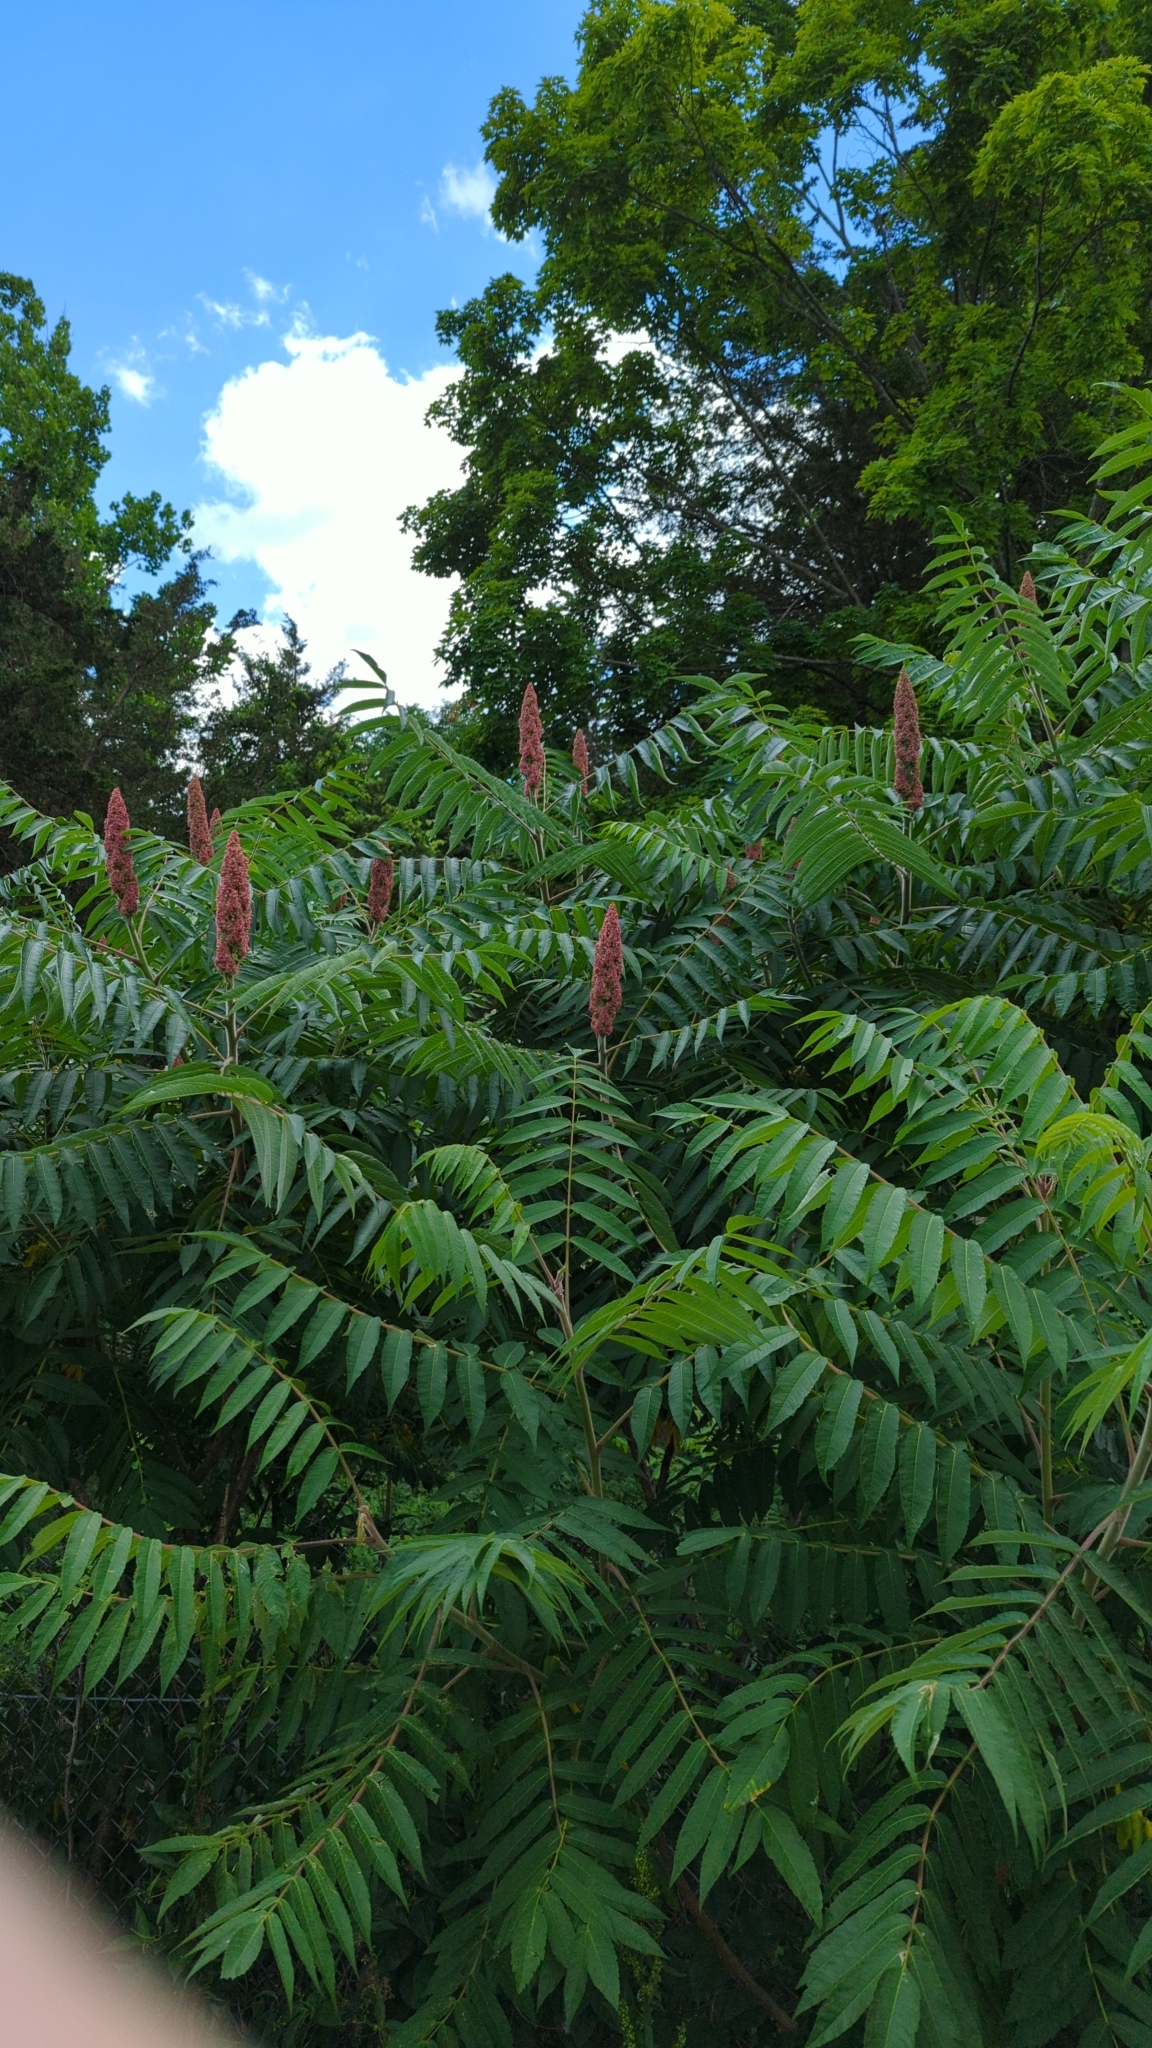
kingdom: Plantae
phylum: Tracheophyta
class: Magnoliopsida
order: Sapindales
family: Anacardiaceae
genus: Rhus
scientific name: Rhus typhina
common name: Staghorn sumac
